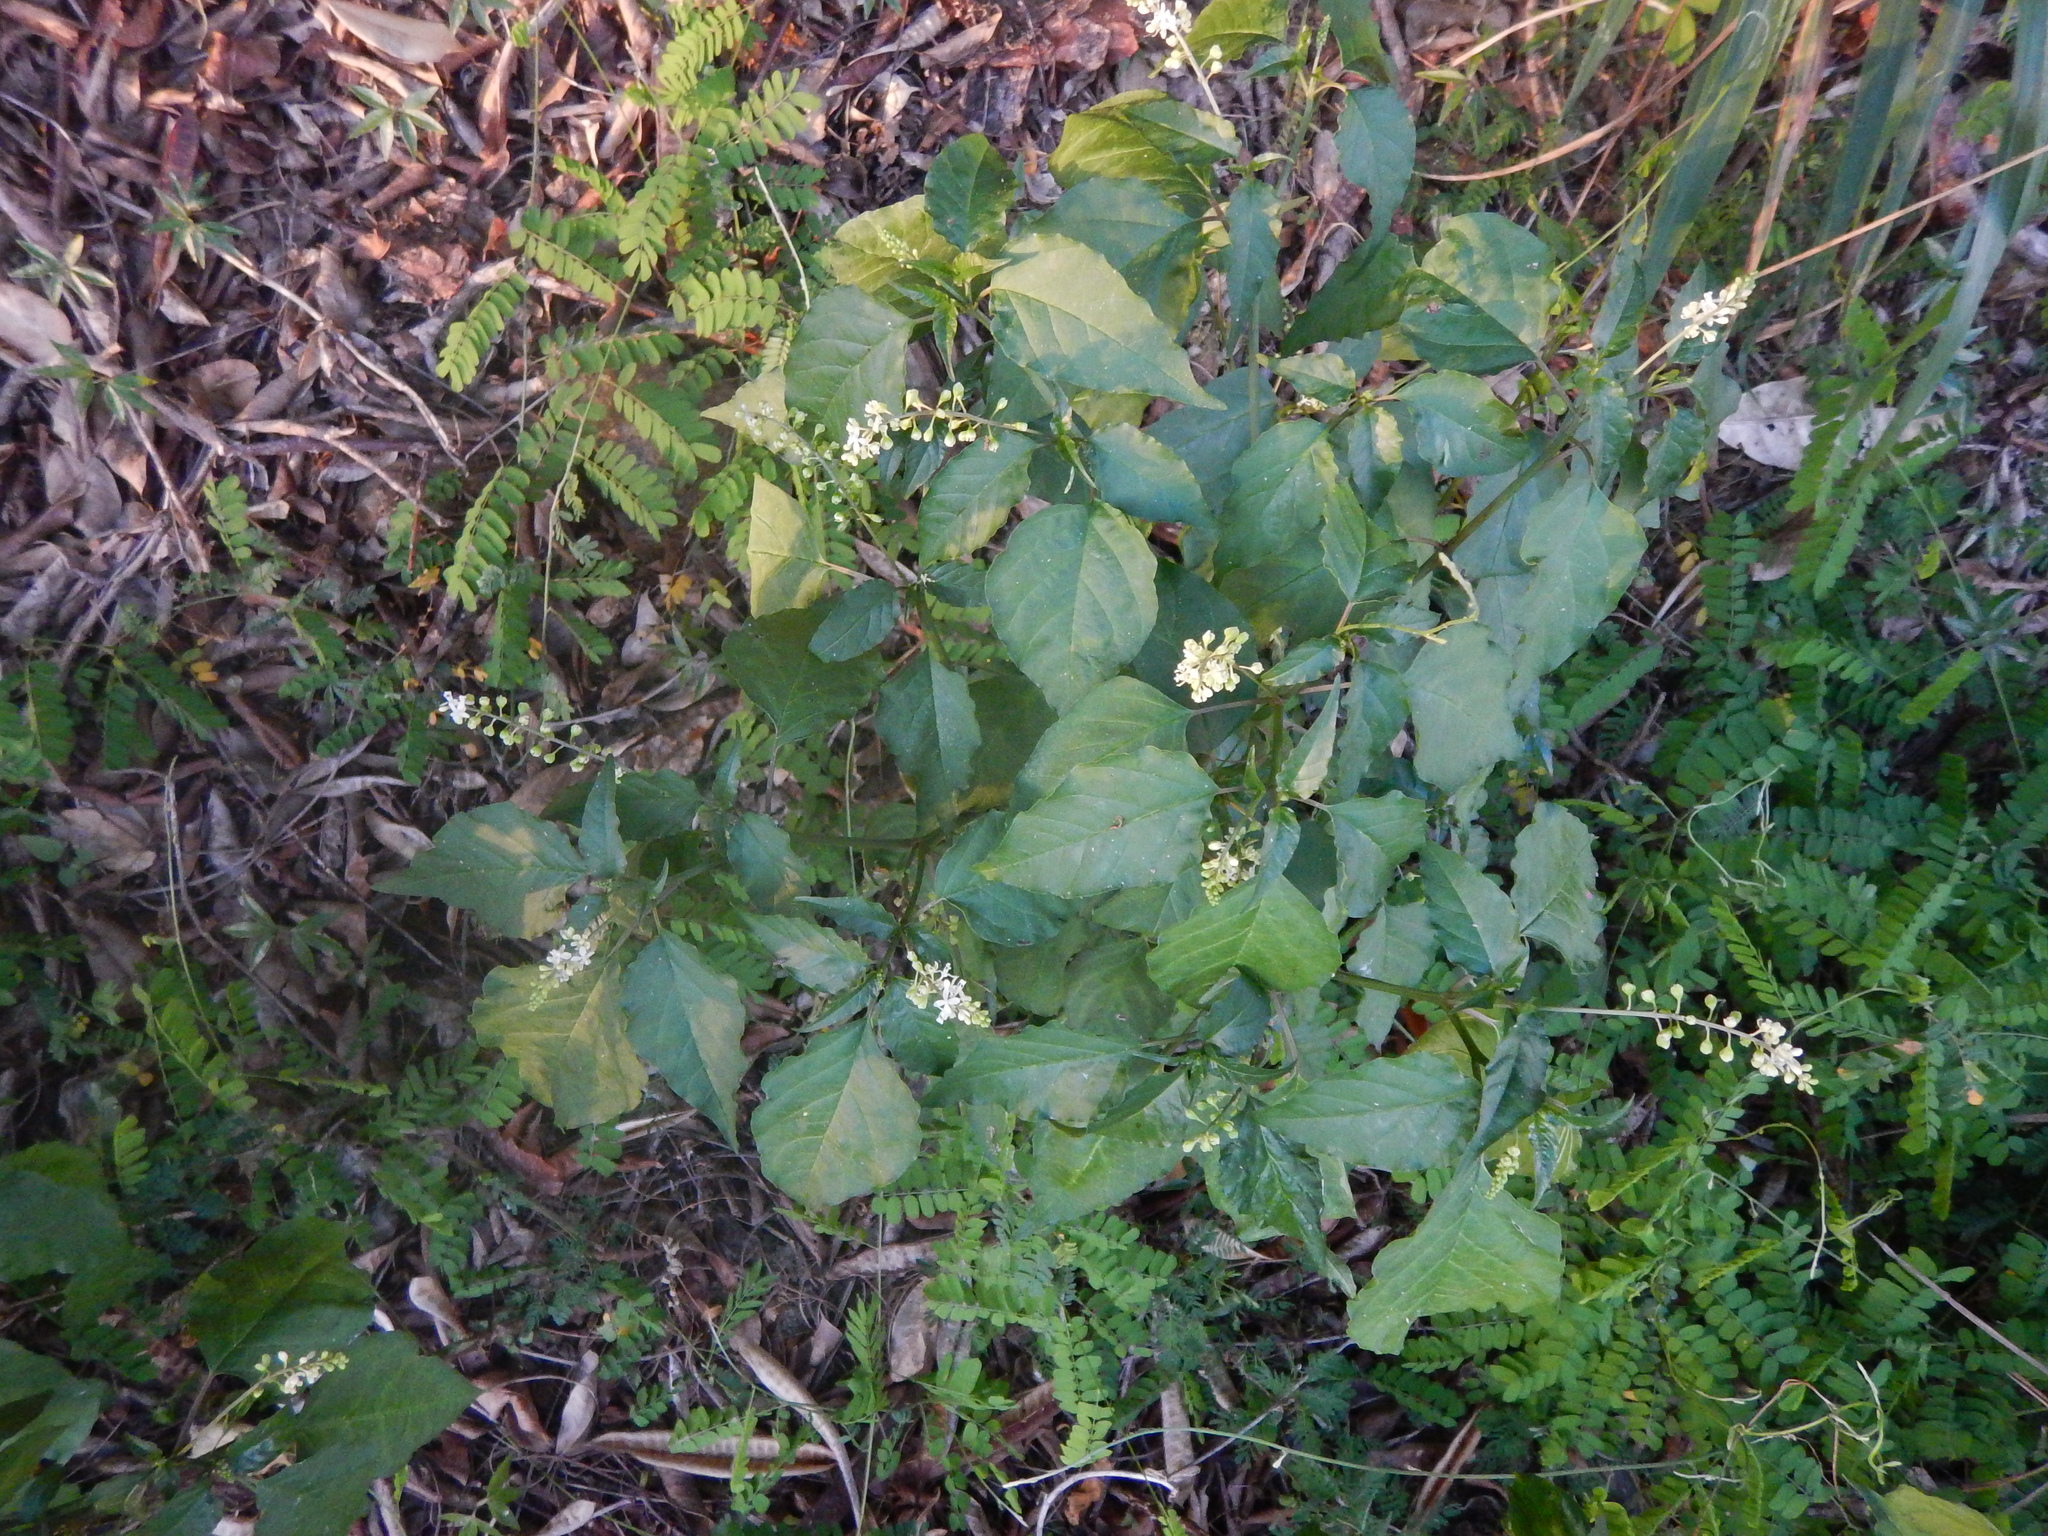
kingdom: Plantae
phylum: Tracheophyta
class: Magnoliopsida
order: Caryophyllales
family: Phytolaccaceae
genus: Rivina
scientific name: Rivina humilis
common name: Rougeplant
